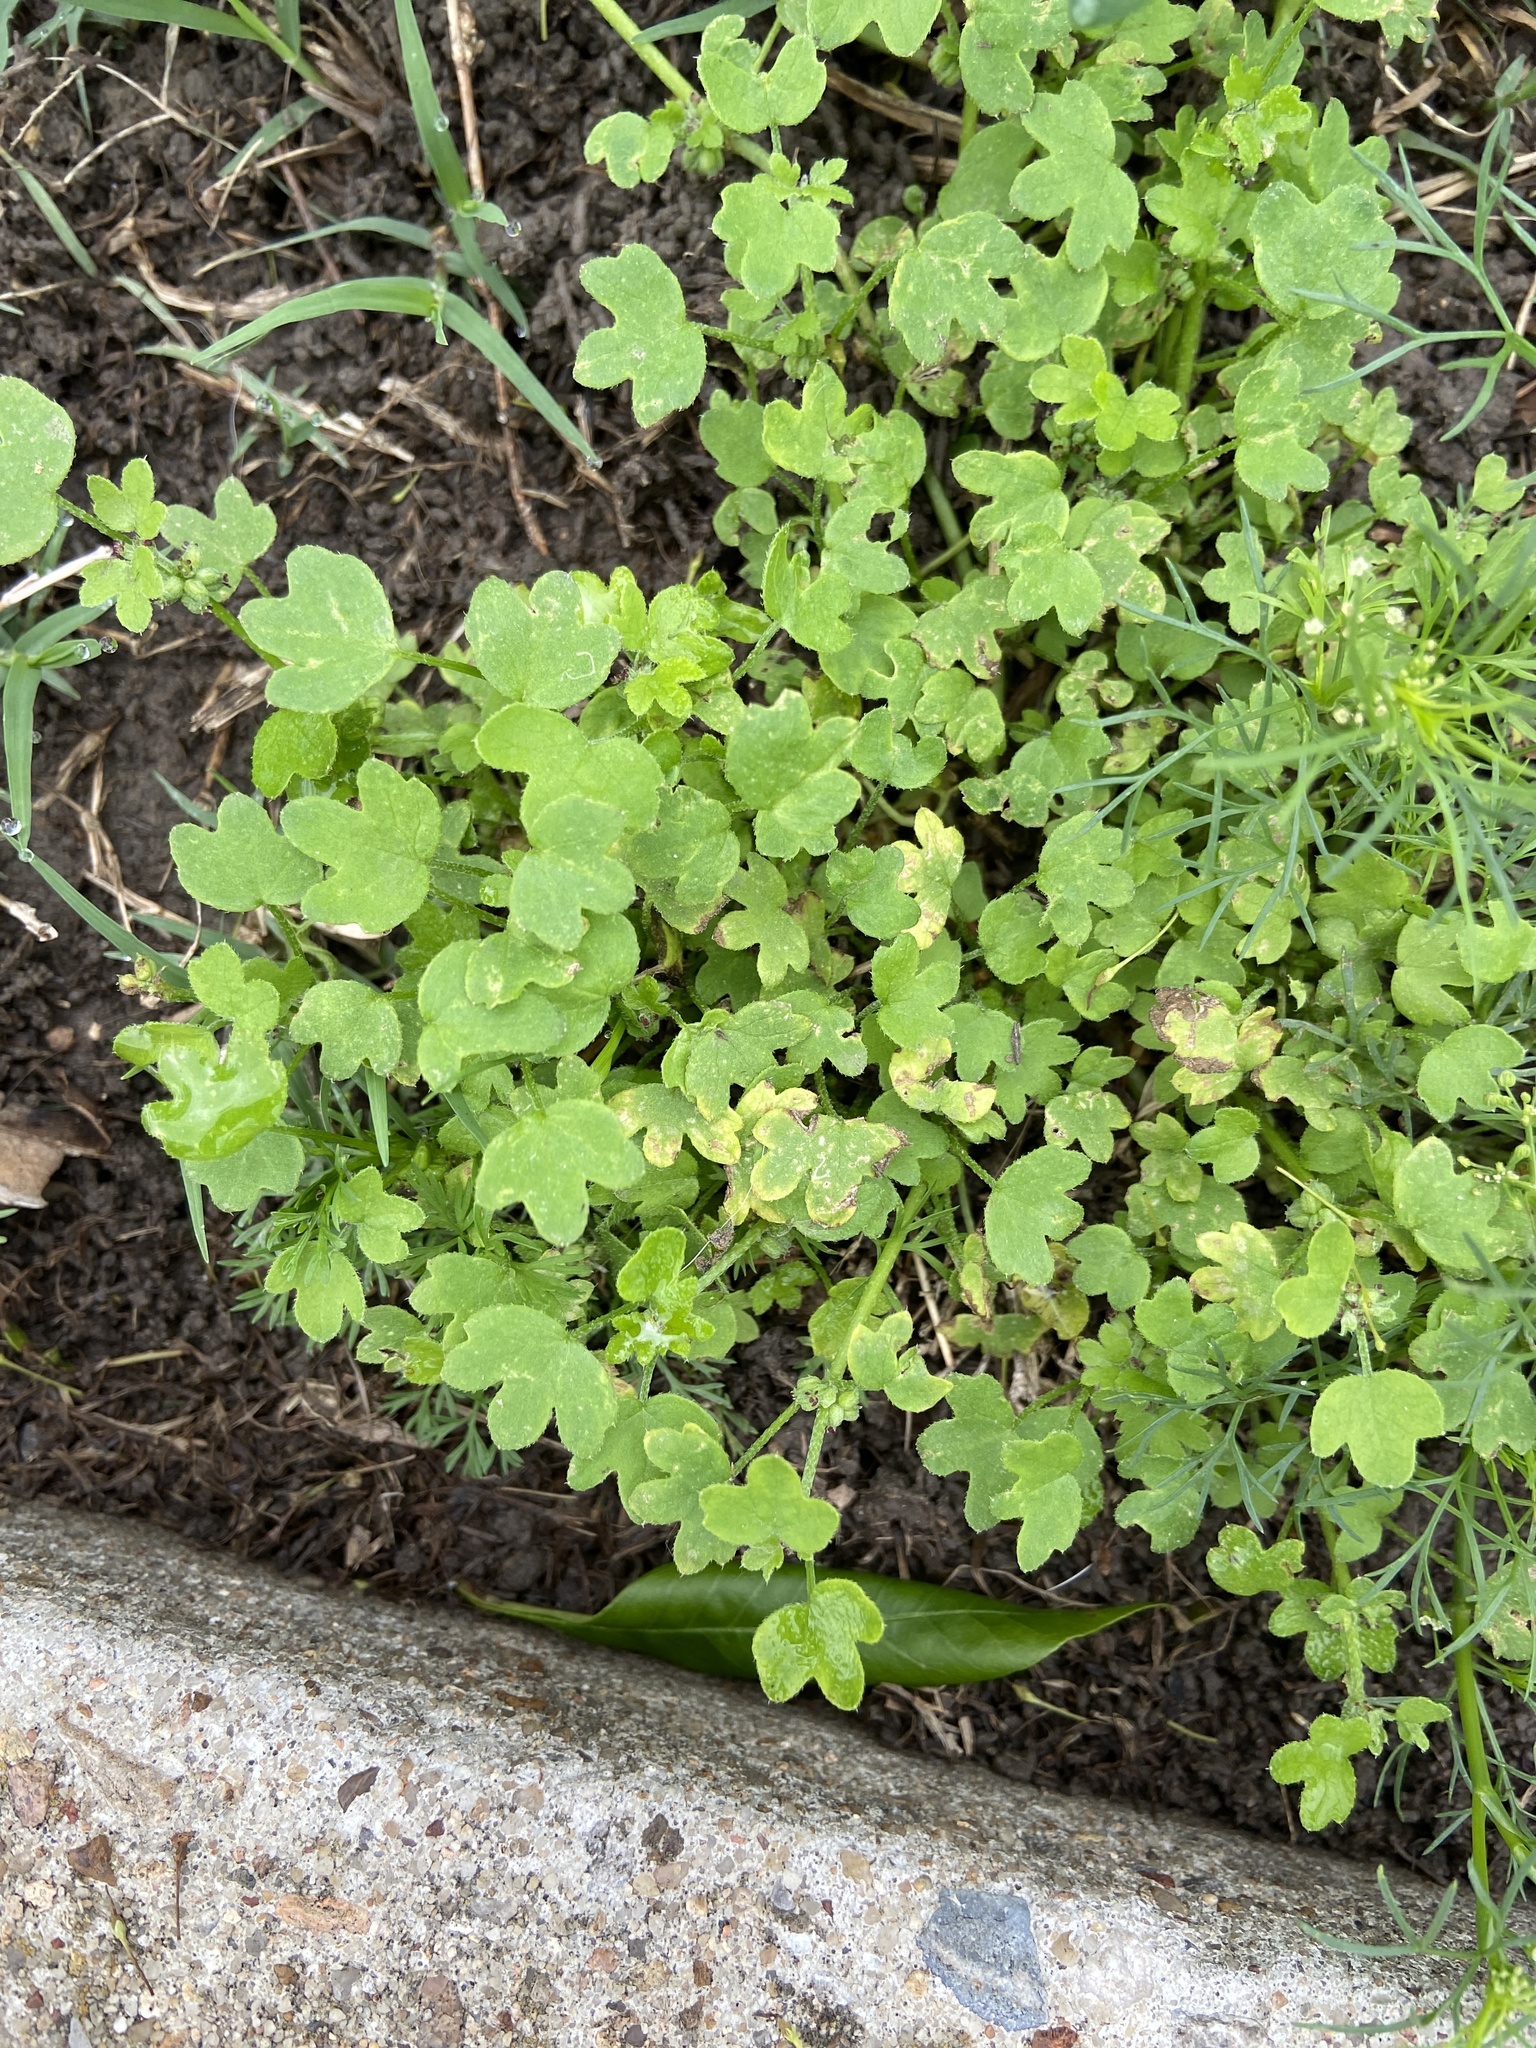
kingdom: Plantae
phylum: Tracheophyta
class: Magnoliopsida
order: Apiales
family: Apiaceae
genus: Bowlesia
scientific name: Bowlesia incana
